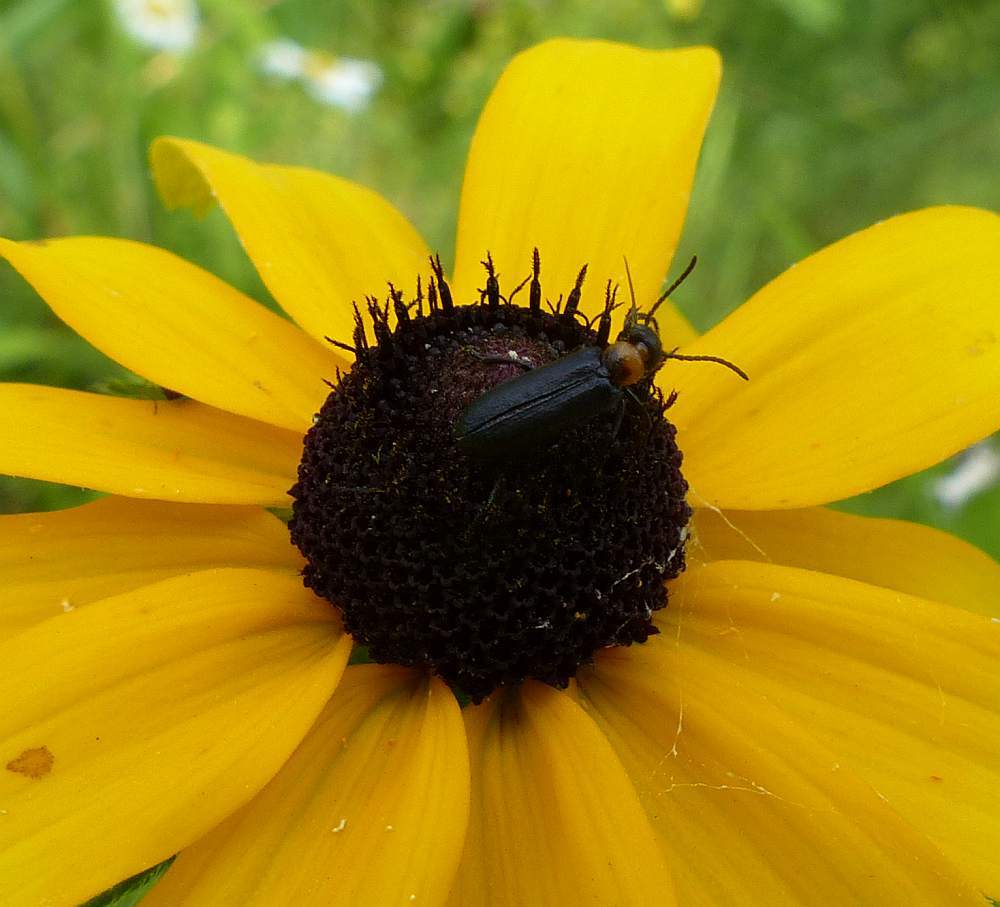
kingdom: Animalia
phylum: Arthropoda
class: Insecta
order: Coleoptera
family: Meloidae
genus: Nemognatha
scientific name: Nemognatha nemorensis
